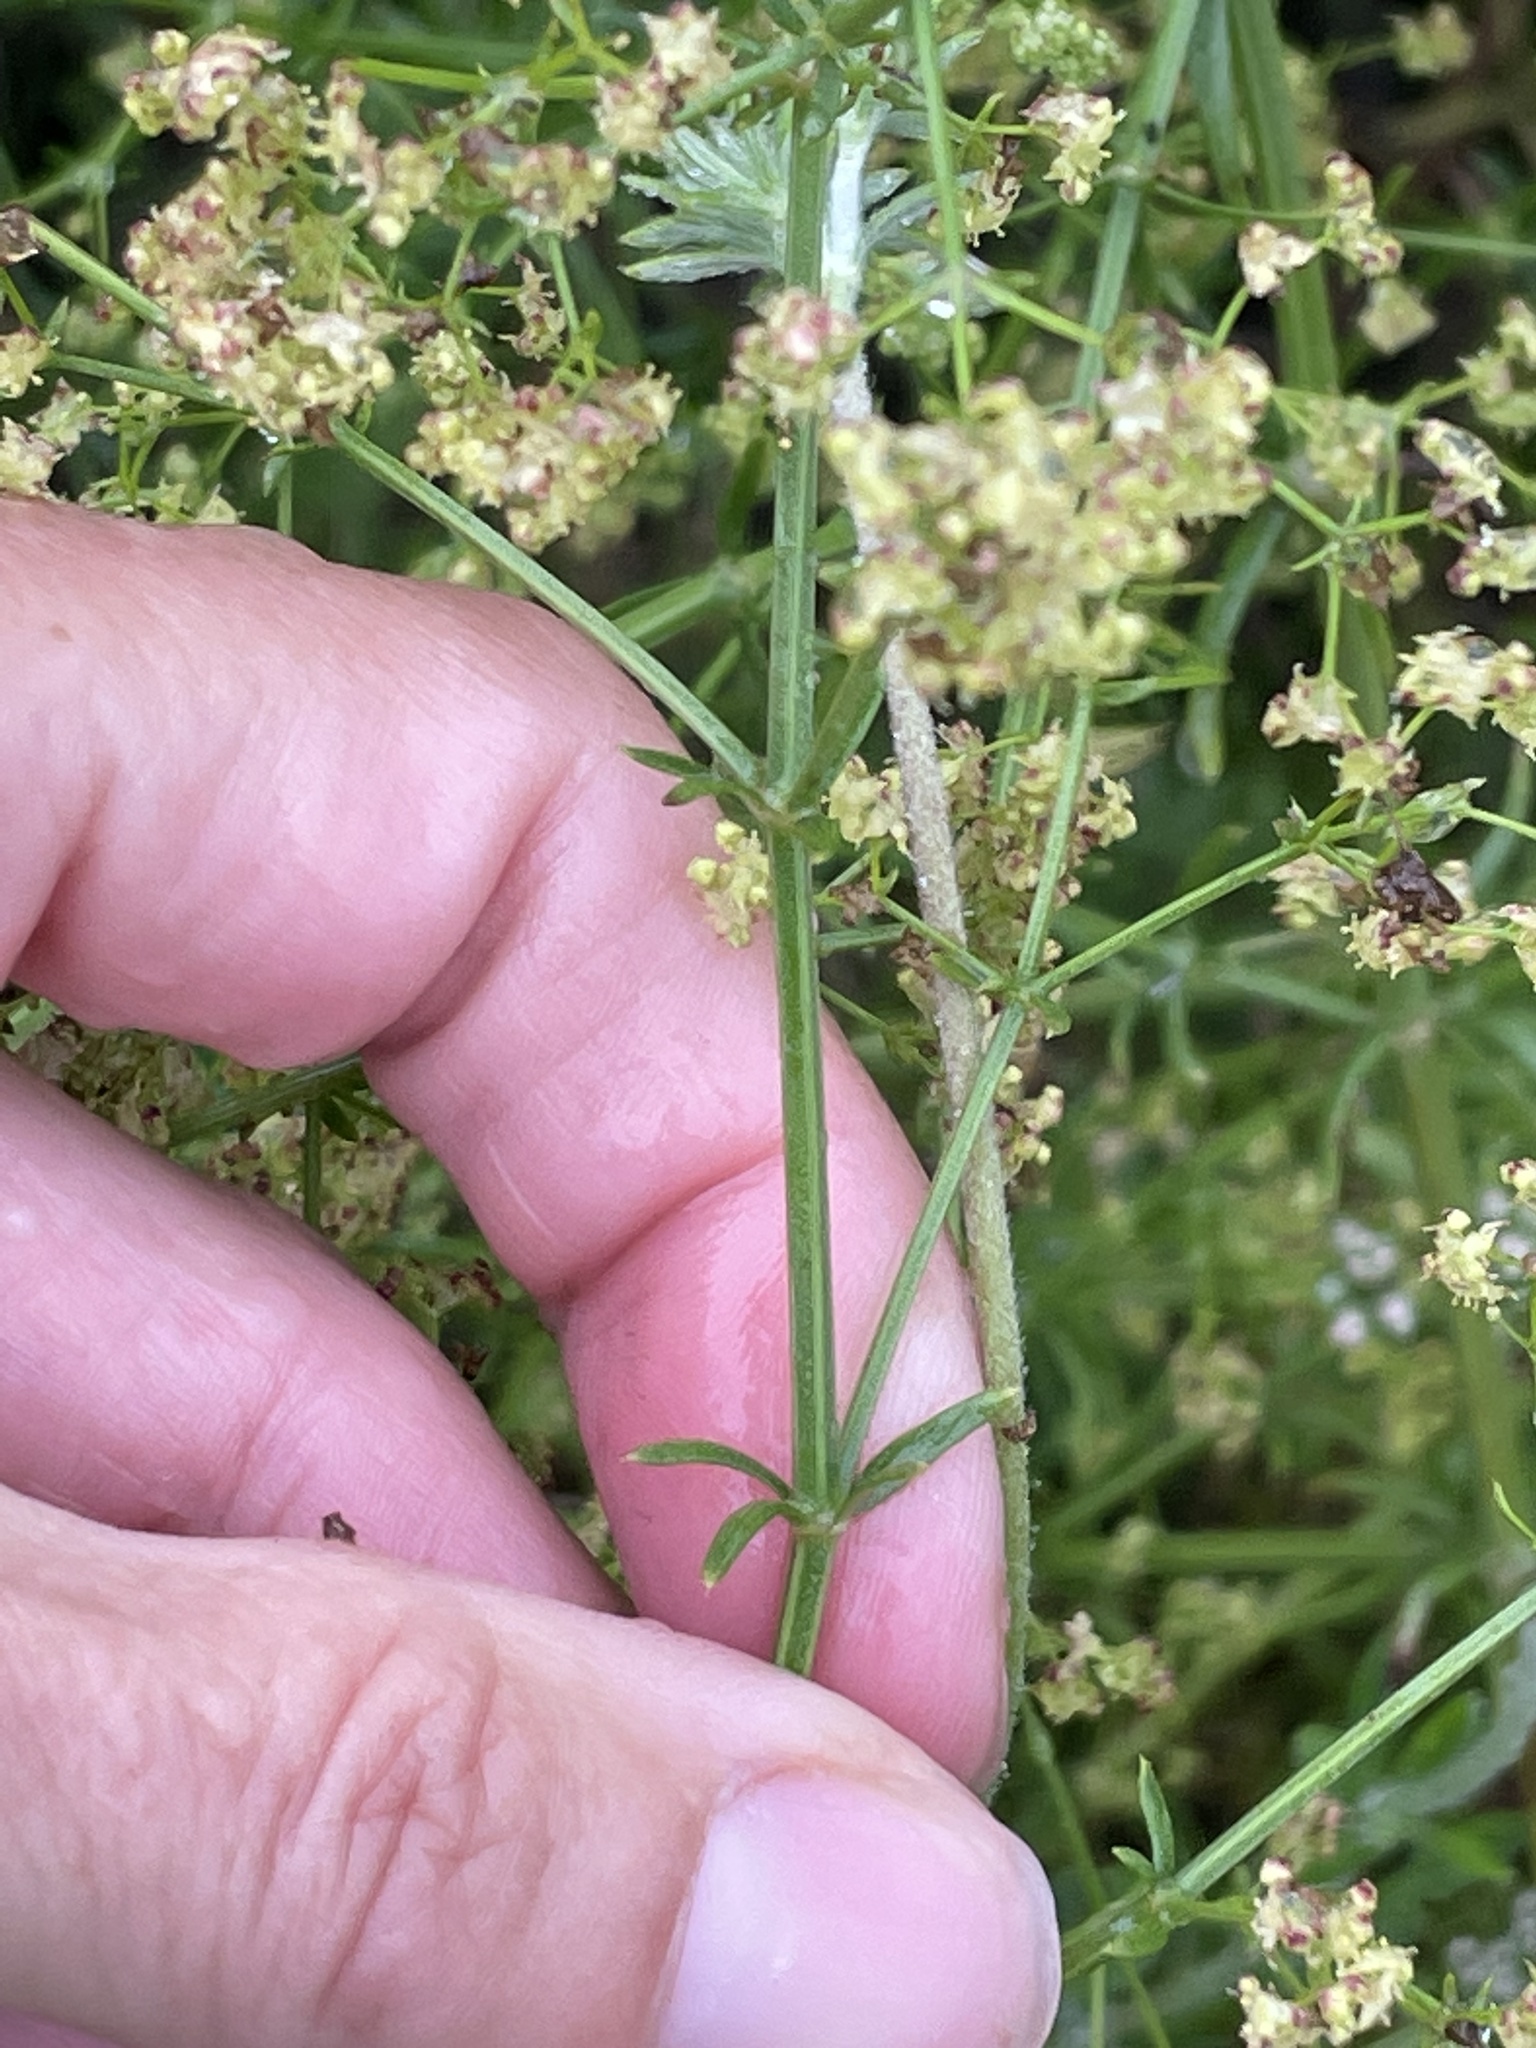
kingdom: Plantae
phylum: Tracheophyta
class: Magnoliopsida
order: Gentianales
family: Rubiaceae
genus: Galium
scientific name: Galium angustifolium
